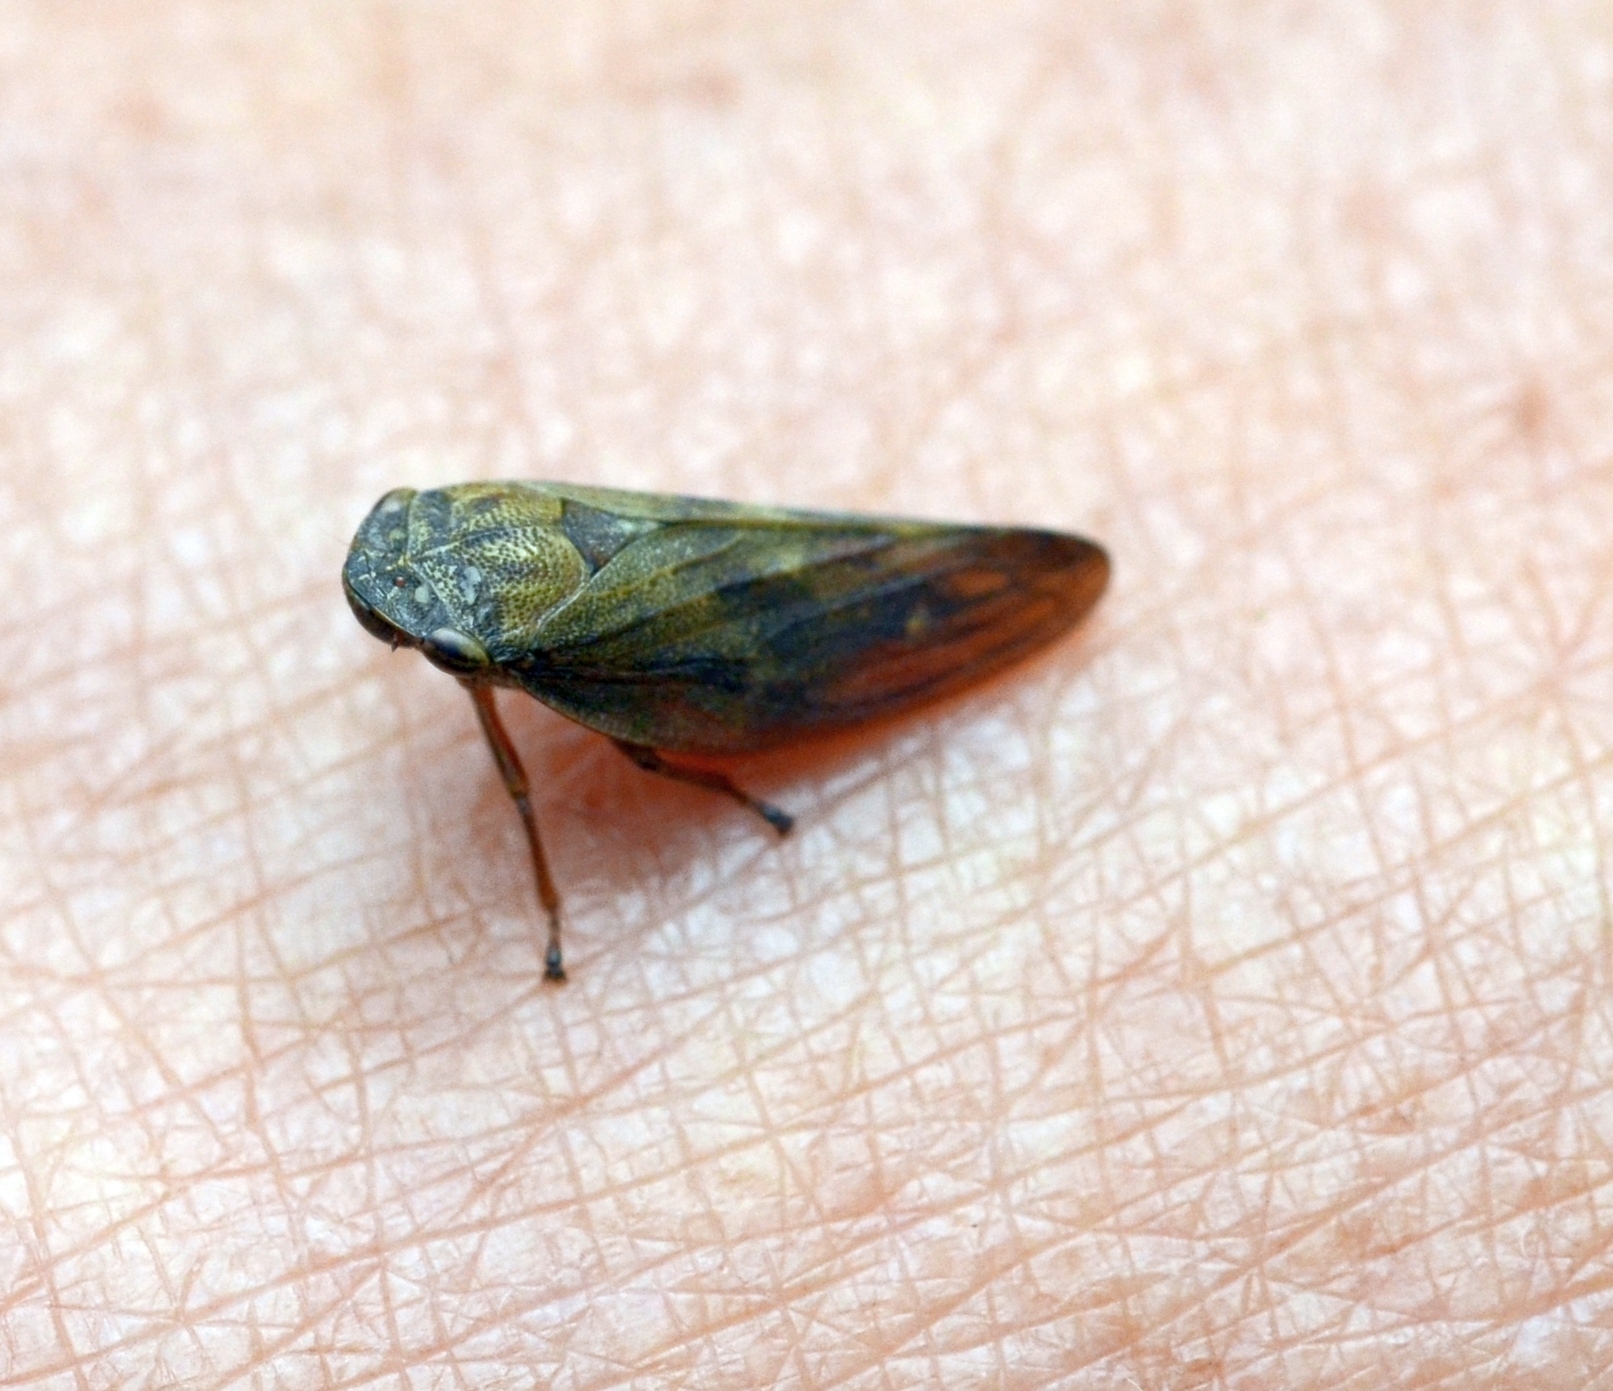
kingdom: Animalia
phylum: Arthropoda
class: Insecta
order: Hemiptera
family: Aphrophoridae
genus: Aphrophora
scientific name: Aphrophora salicina
